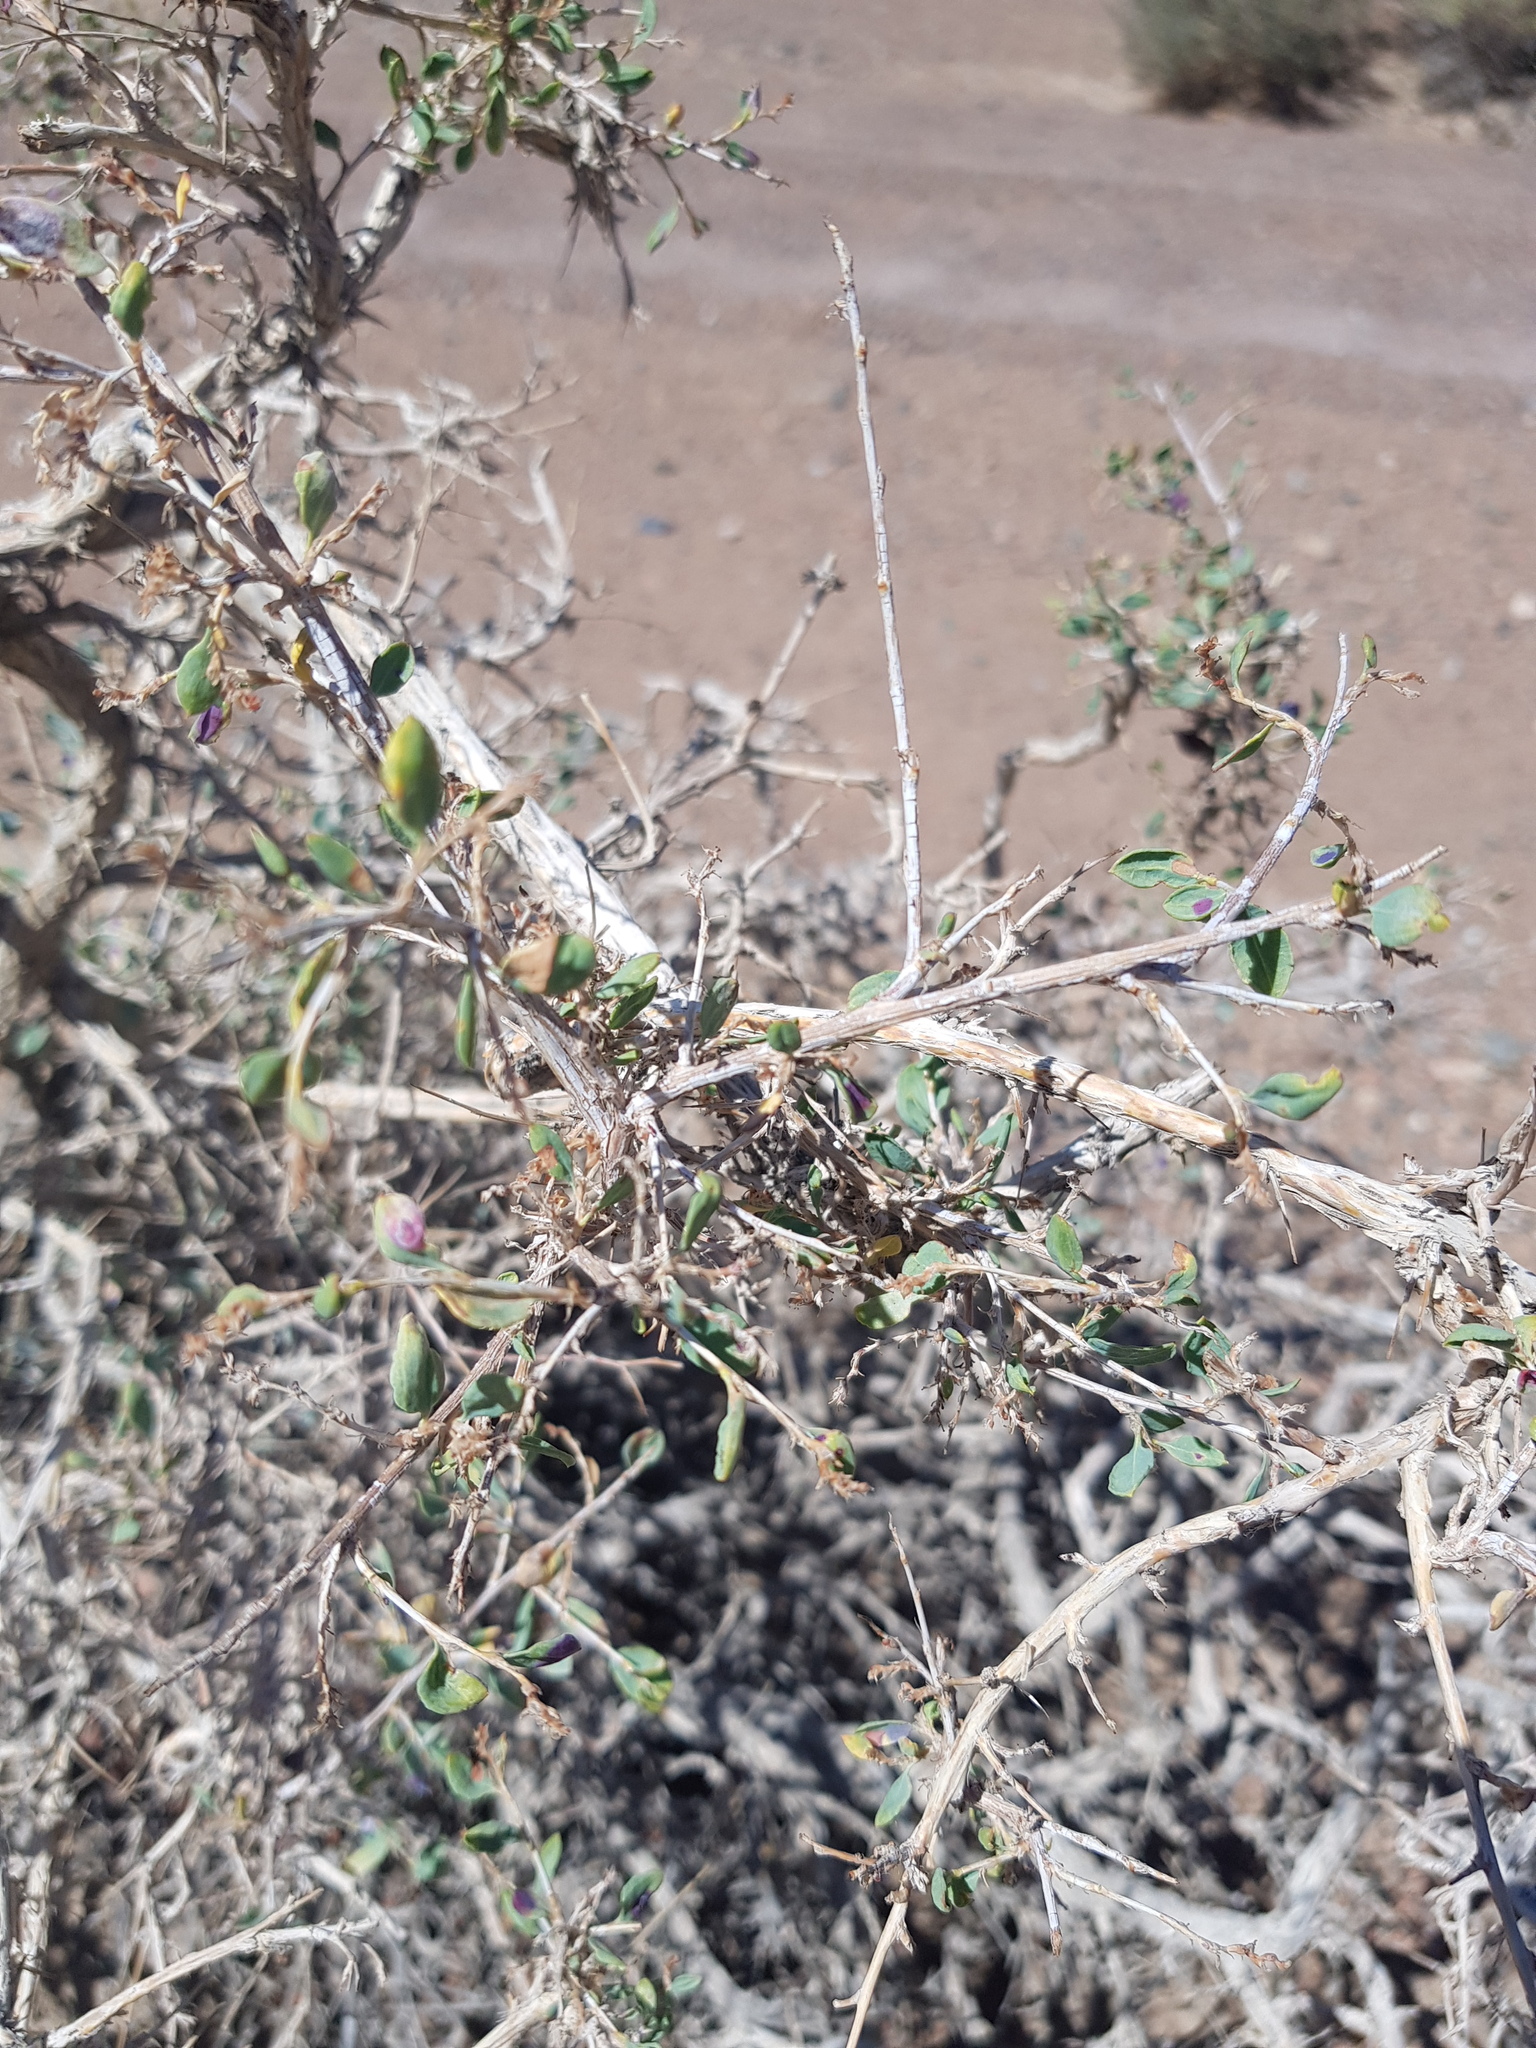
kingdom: Plantae
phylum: Tracheophyta
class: Magnoliopsida
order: Caryophyllales
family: Polygonaceae
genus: Atraphaxis
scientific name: Atraphaxis compacta
